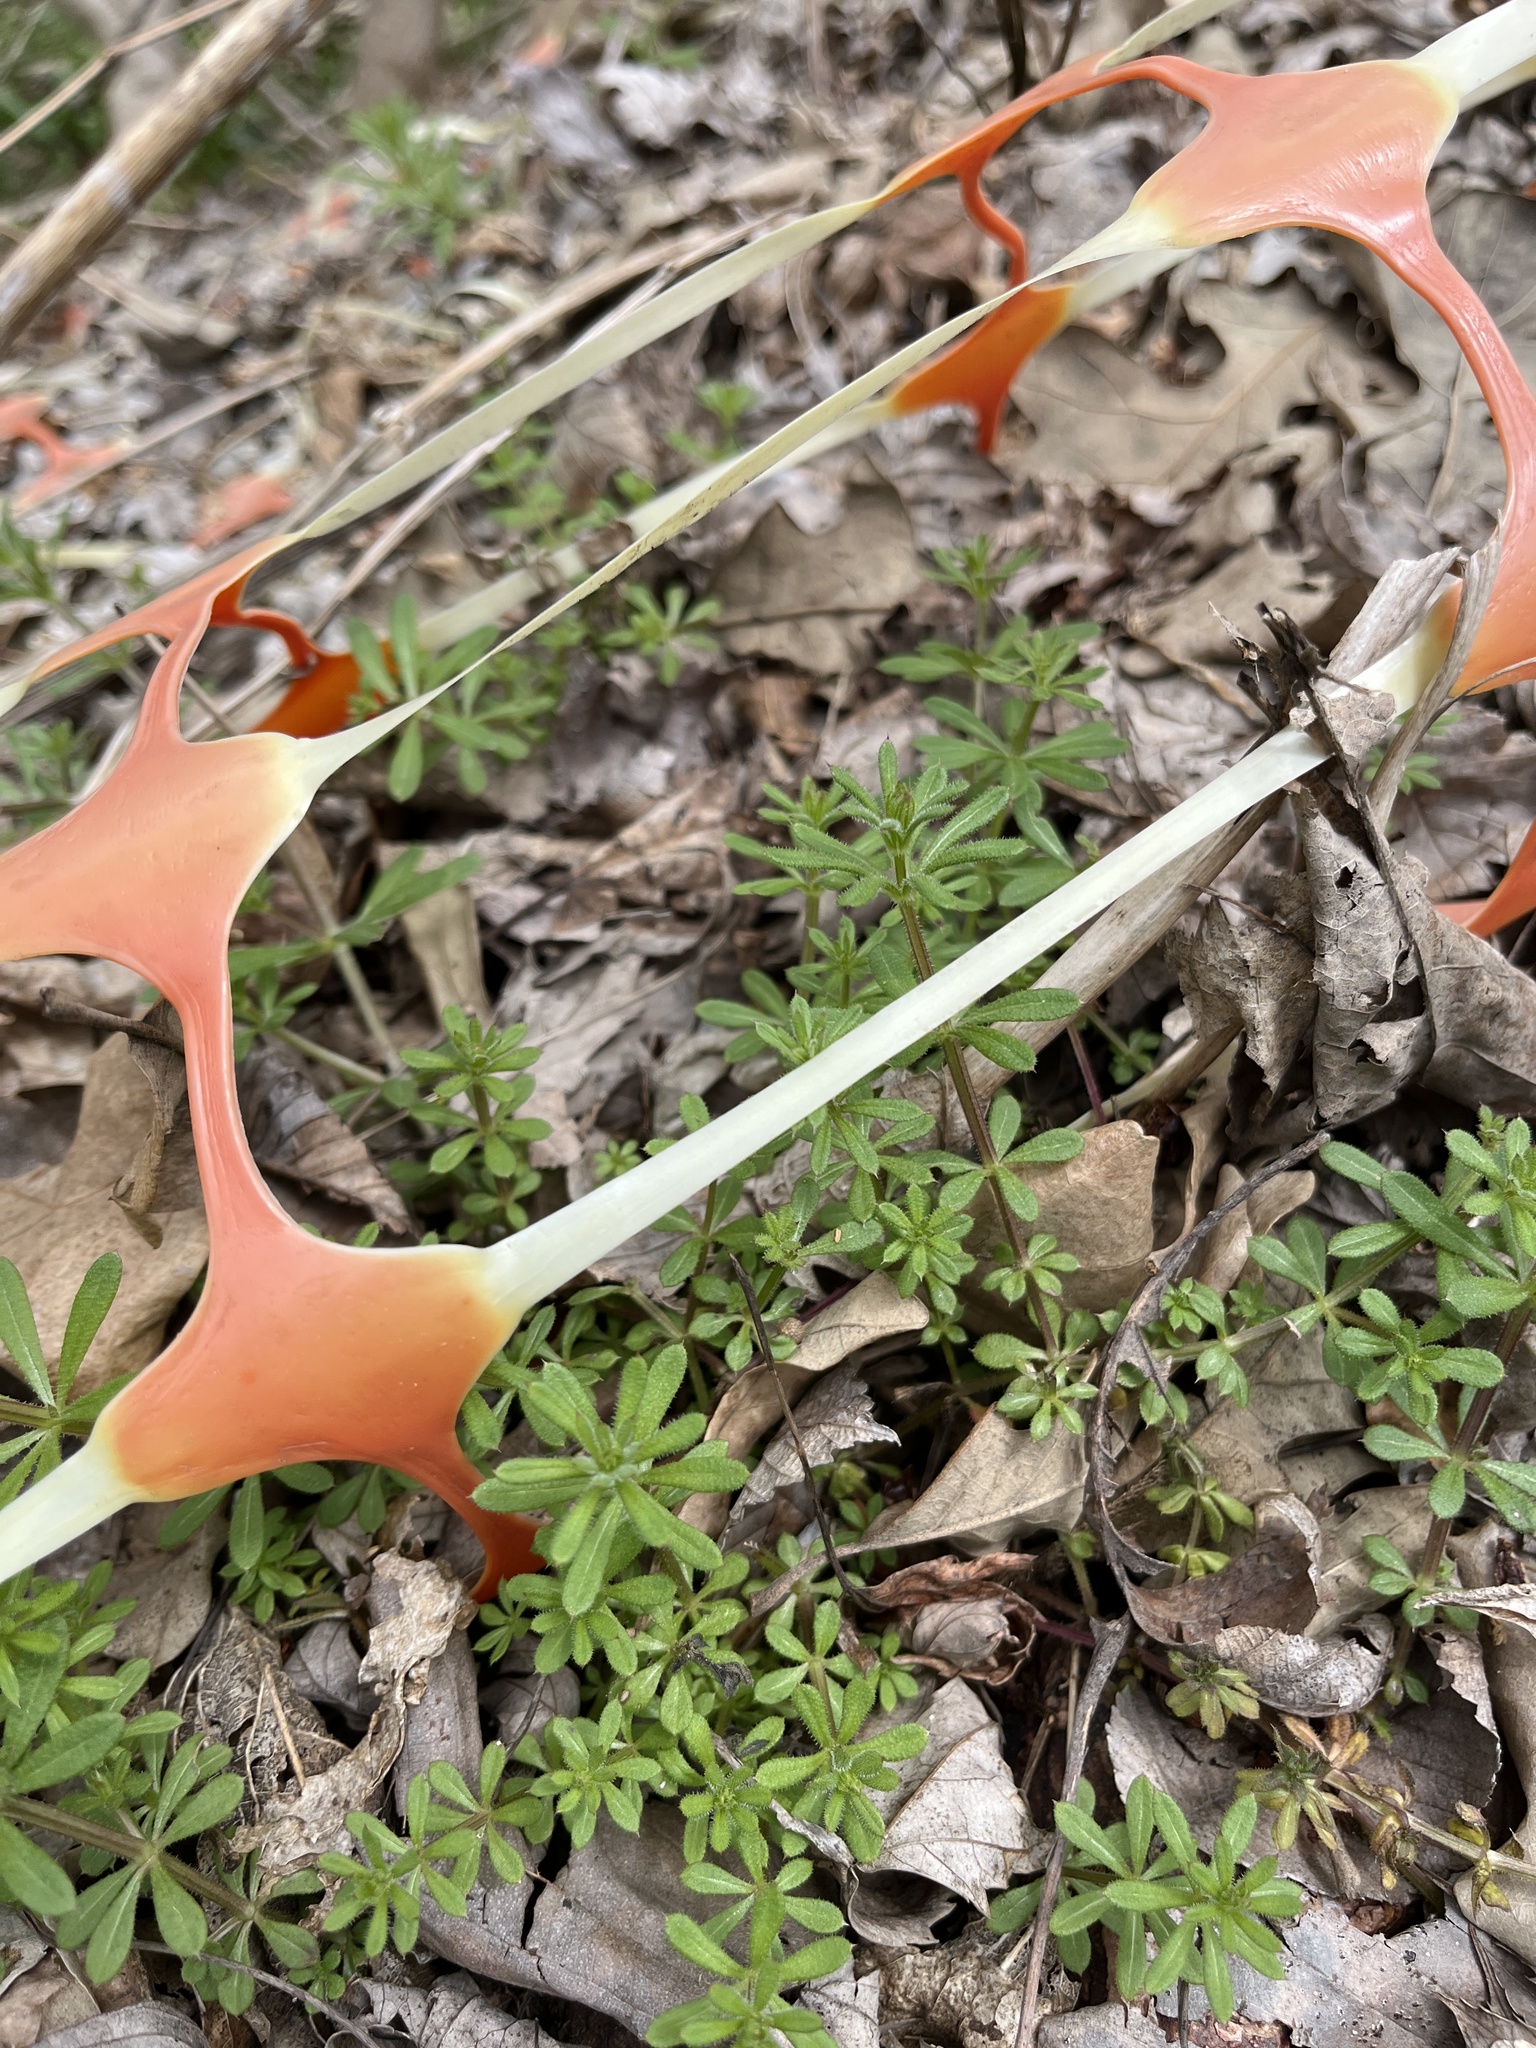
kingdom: Plantae
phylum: Tracheophyta
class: Magnoliopsida
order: Gentianales
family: Rubiaceae
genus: Galium
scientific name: Galium aparine
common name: Cleavers
